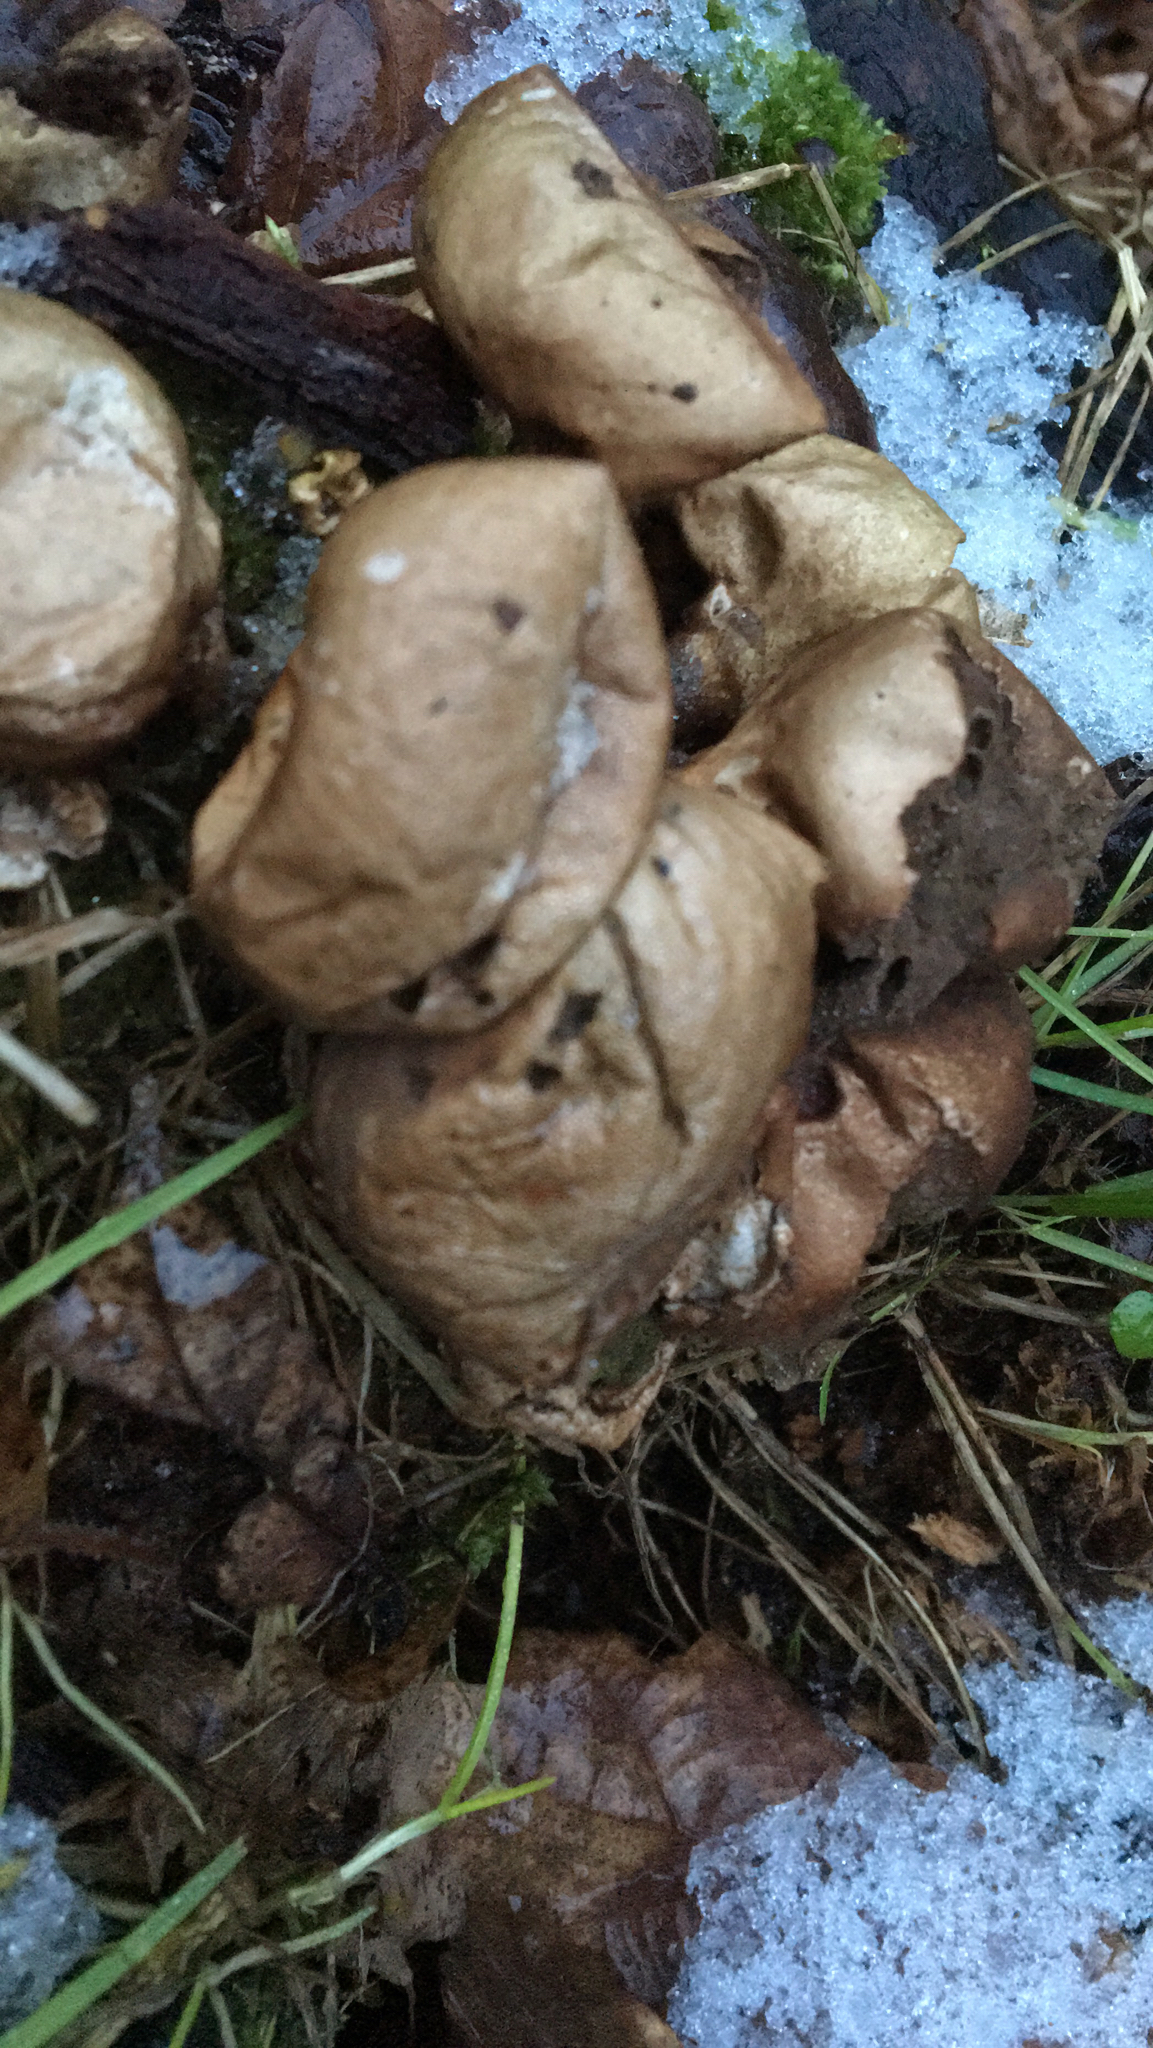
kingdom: Fungi
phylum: Basidiomycota
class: Agaricomycetes
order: Agaricales
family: Lycoperdaceae
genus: Apioperdon
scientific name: Apioperdon pyriforme
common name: Pear-shaped puffball
